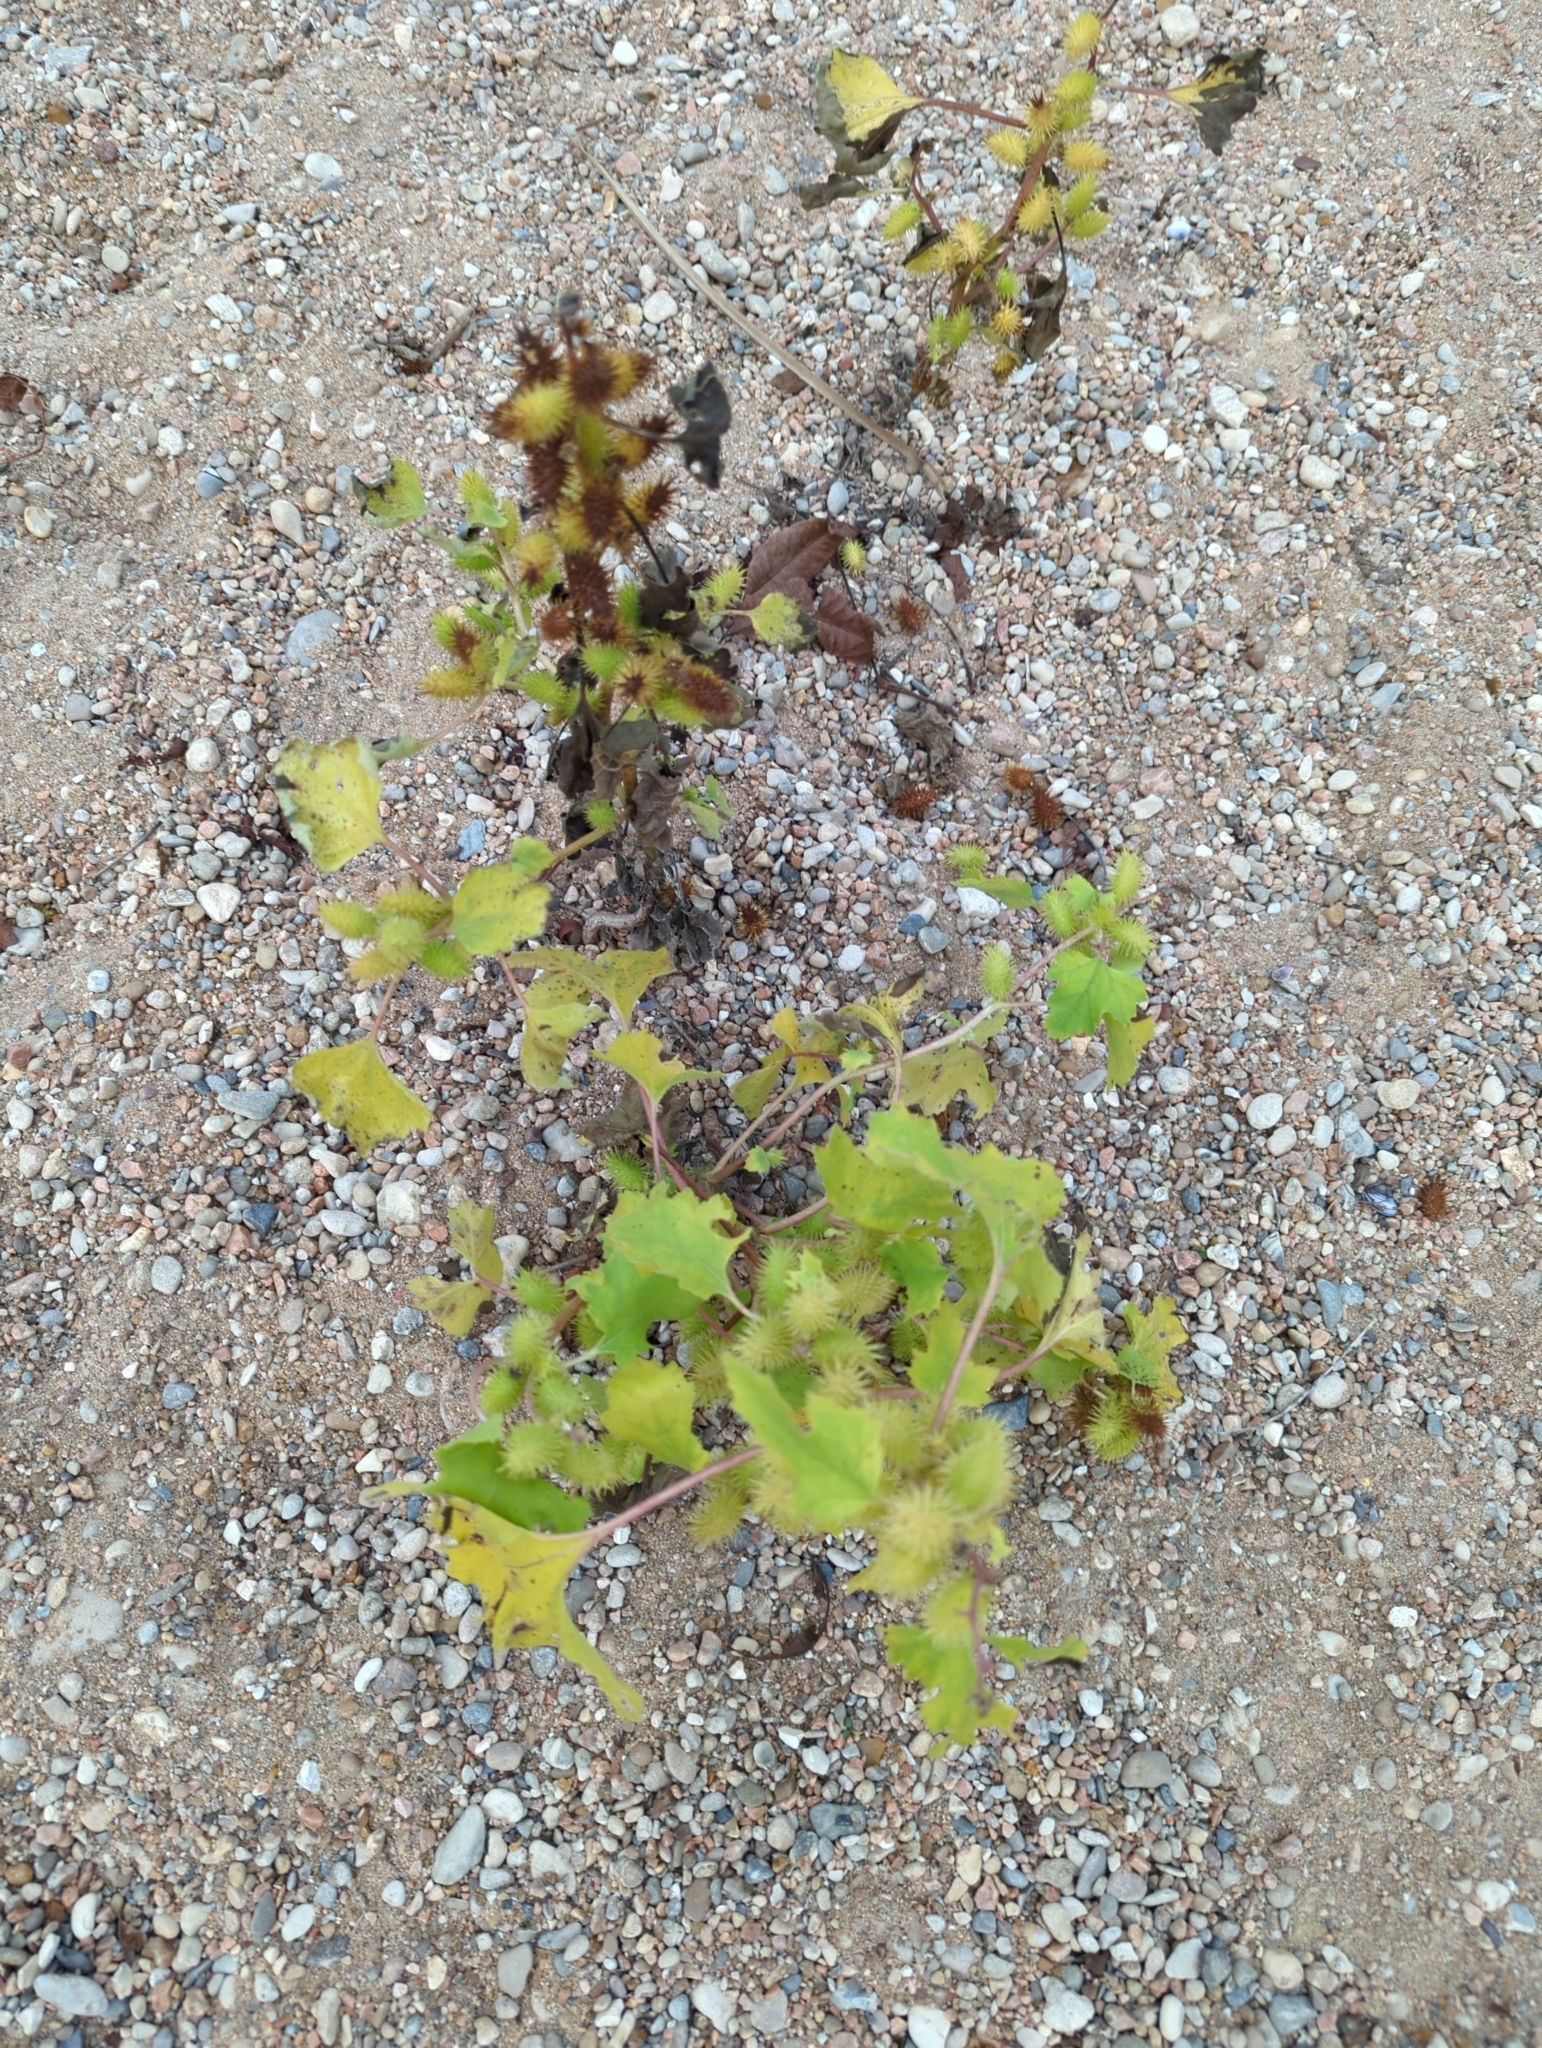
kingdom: Plantae
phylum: Tracheophyta
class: Magnoliopsida
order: Asterales
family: Asteraceae
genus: Xanthium
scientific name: Xanthium strumarium
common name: Rough cocklebur
